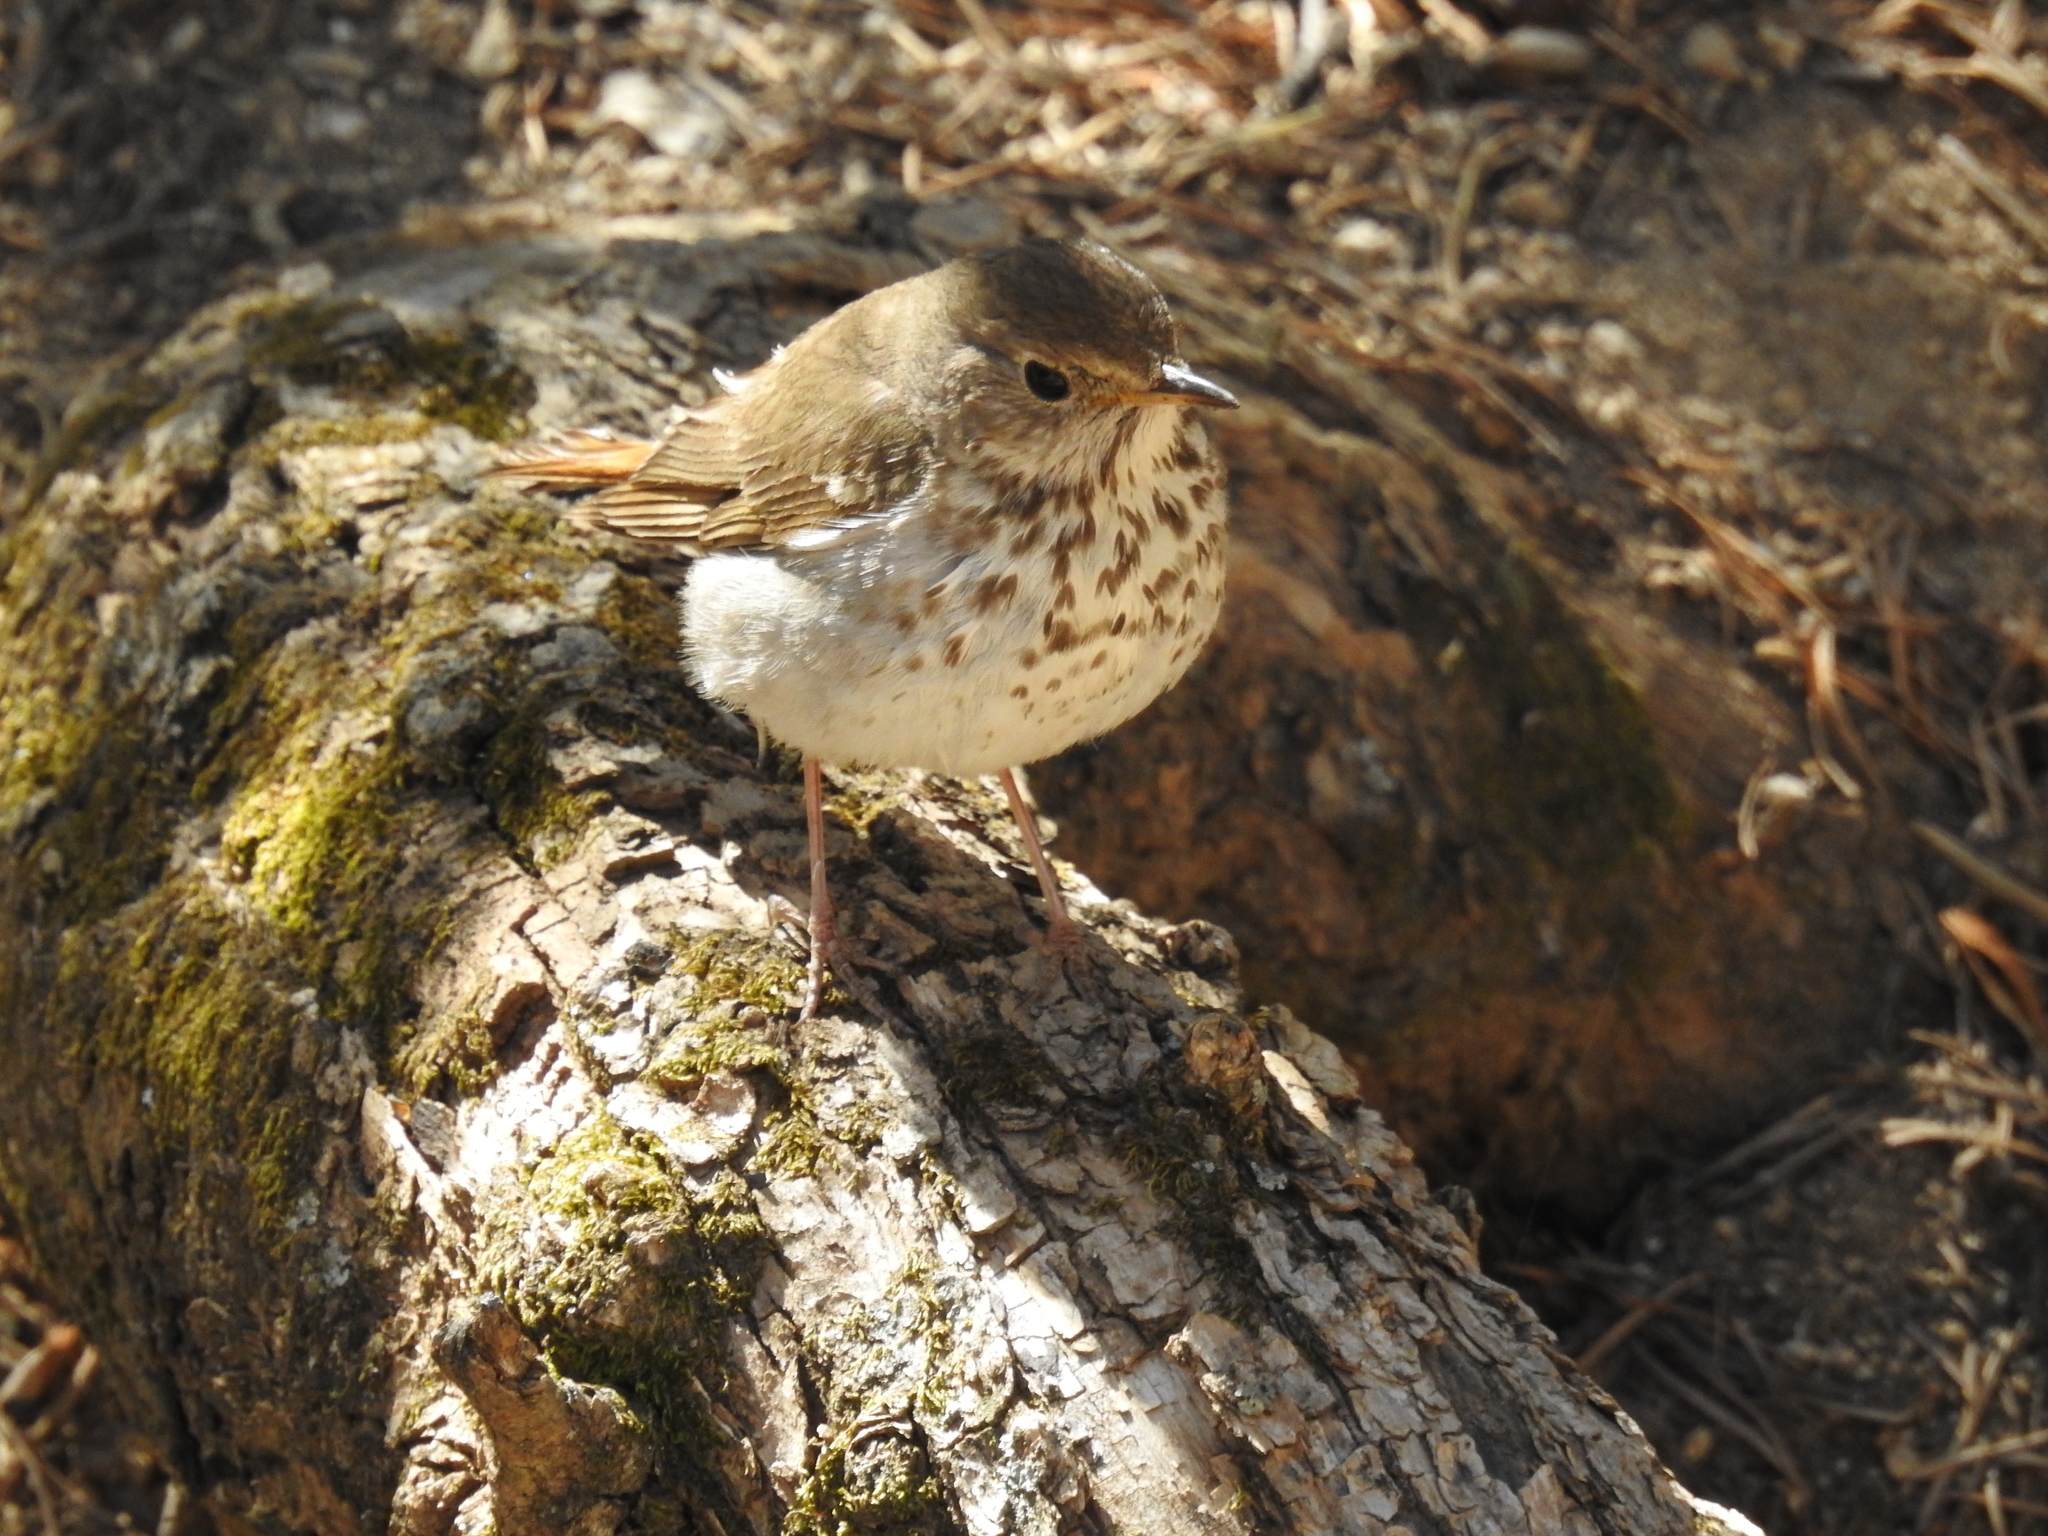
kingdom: Animalia
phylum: Chordata
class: Aves
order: Passeriformes
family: Turdidae
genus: Catharus
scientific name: Catharus guttatus
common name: Hermit thrush
